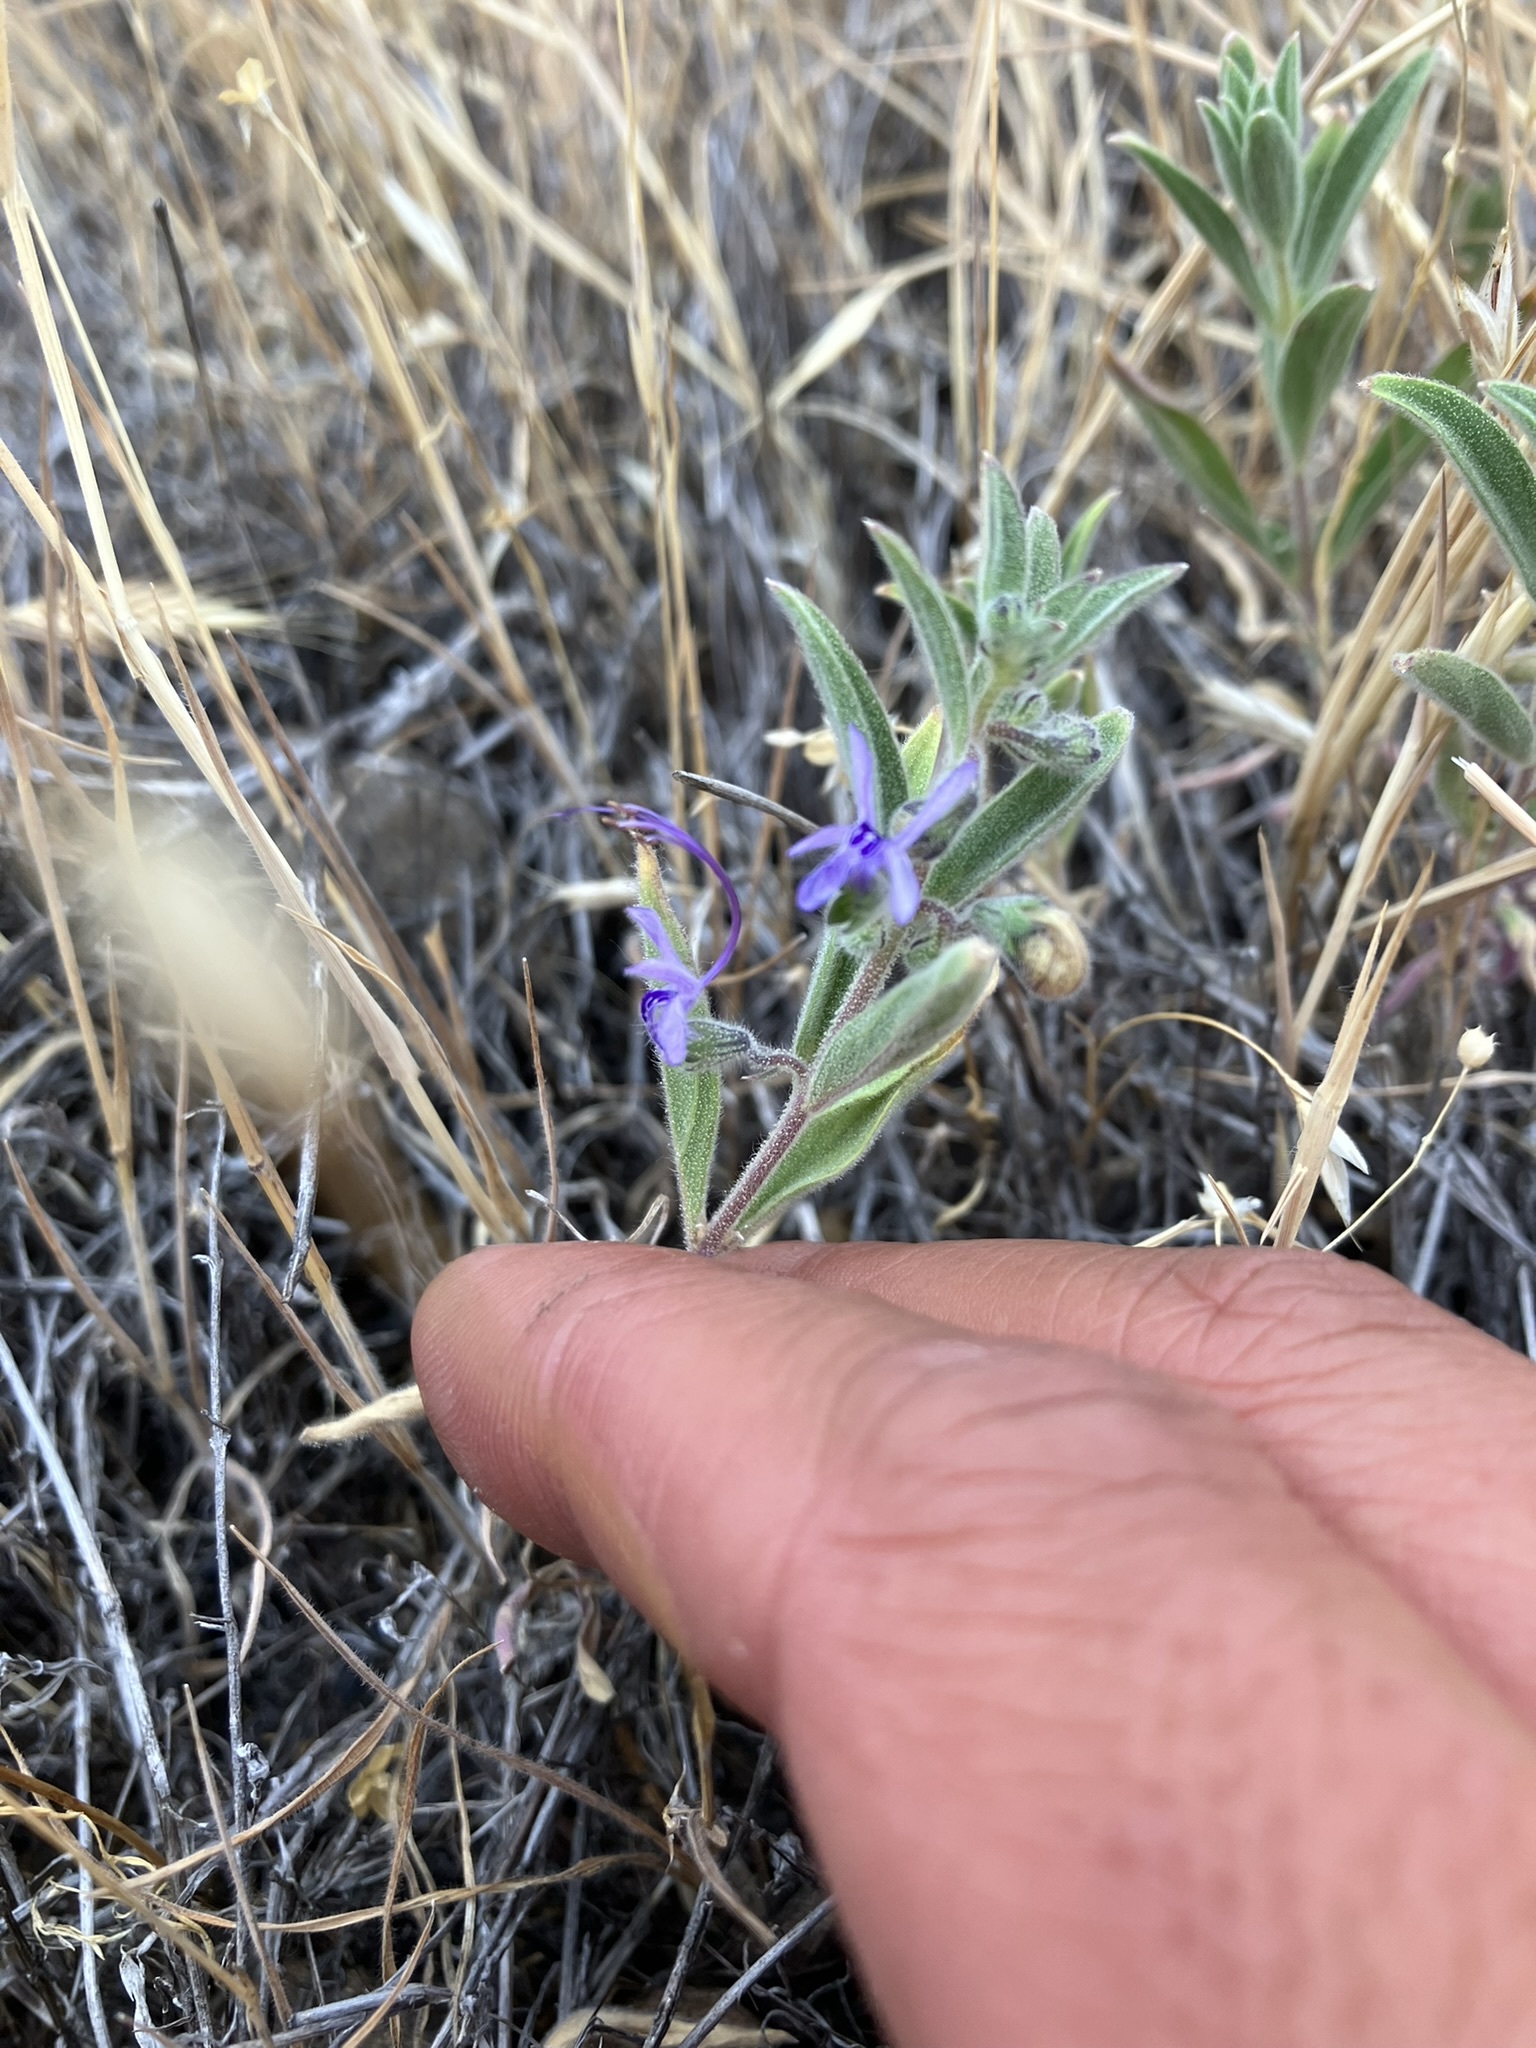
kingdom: Plantae
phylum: Tracheophyta
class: Magnoliopsida
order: Lamiales
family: Lamiaceae
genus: Trichostema
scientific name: Trichostema lanceolatum
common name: Vinegar-weed
